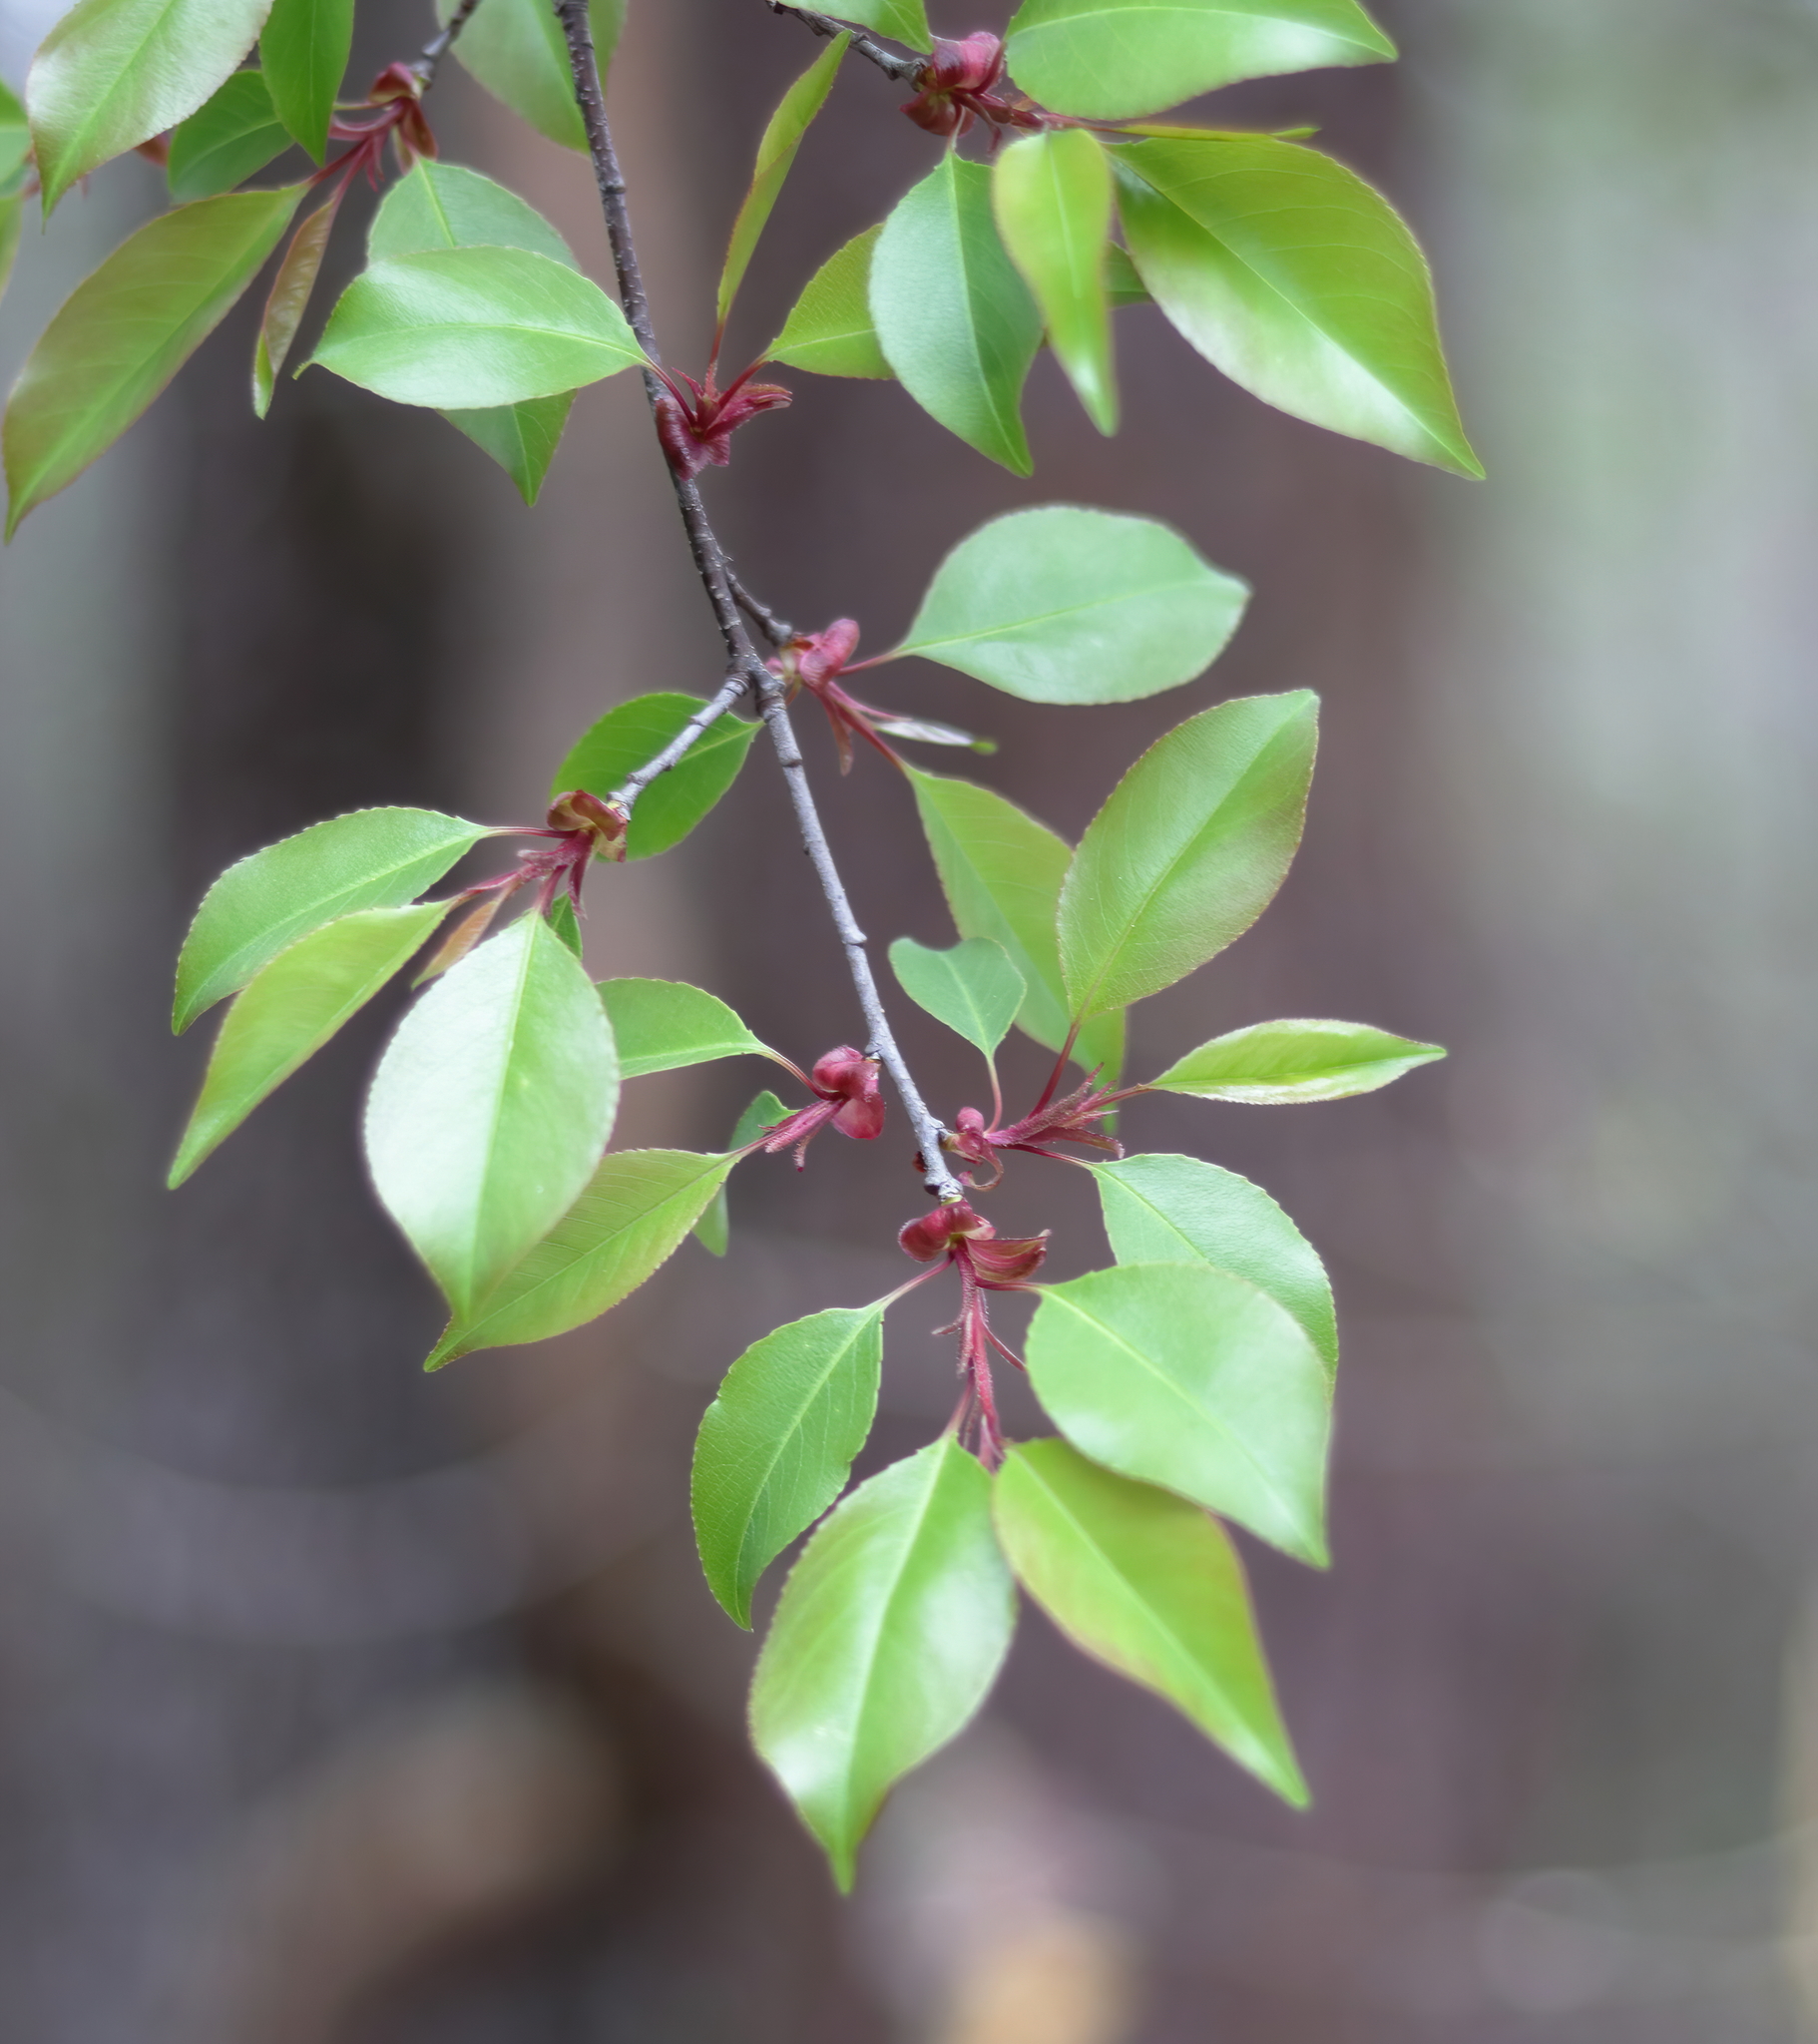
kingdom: Plantae
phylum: Tracheophyta
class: Magnoliopsida
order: Rosales
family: Rosaceae
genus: Prunus
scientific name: Prunus serotina
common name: Black cherry
